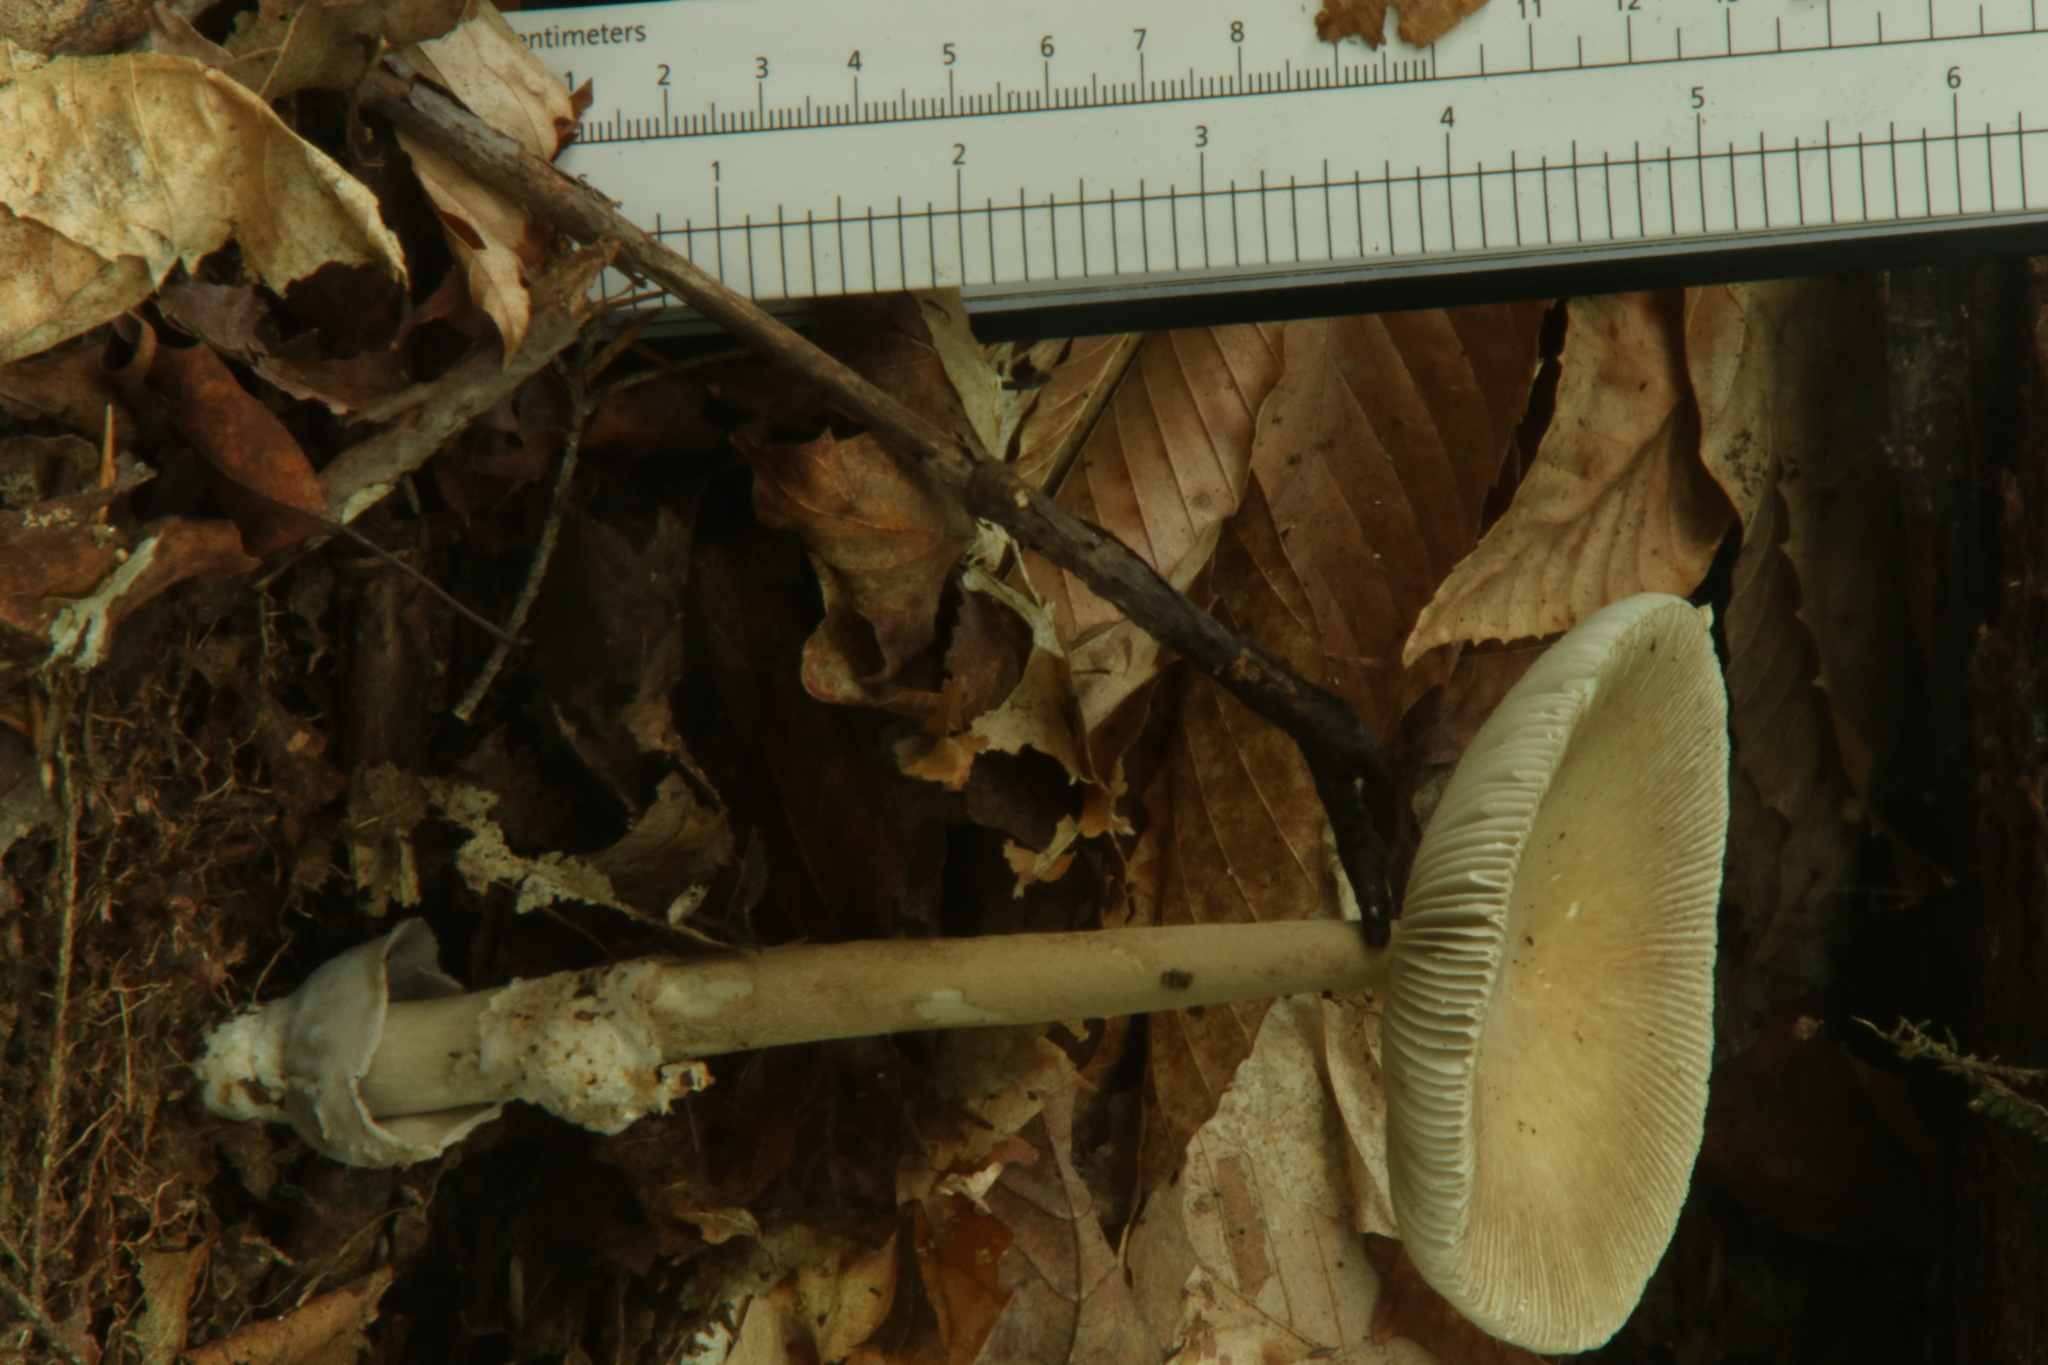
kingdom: Fungi
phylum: Basidiomycota
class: Agaricomycetes
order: Agaricales
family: Amanitaceae
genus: Amanita
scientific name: Amanita sinicoflava
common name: Mandarin yellow ringless amanita
